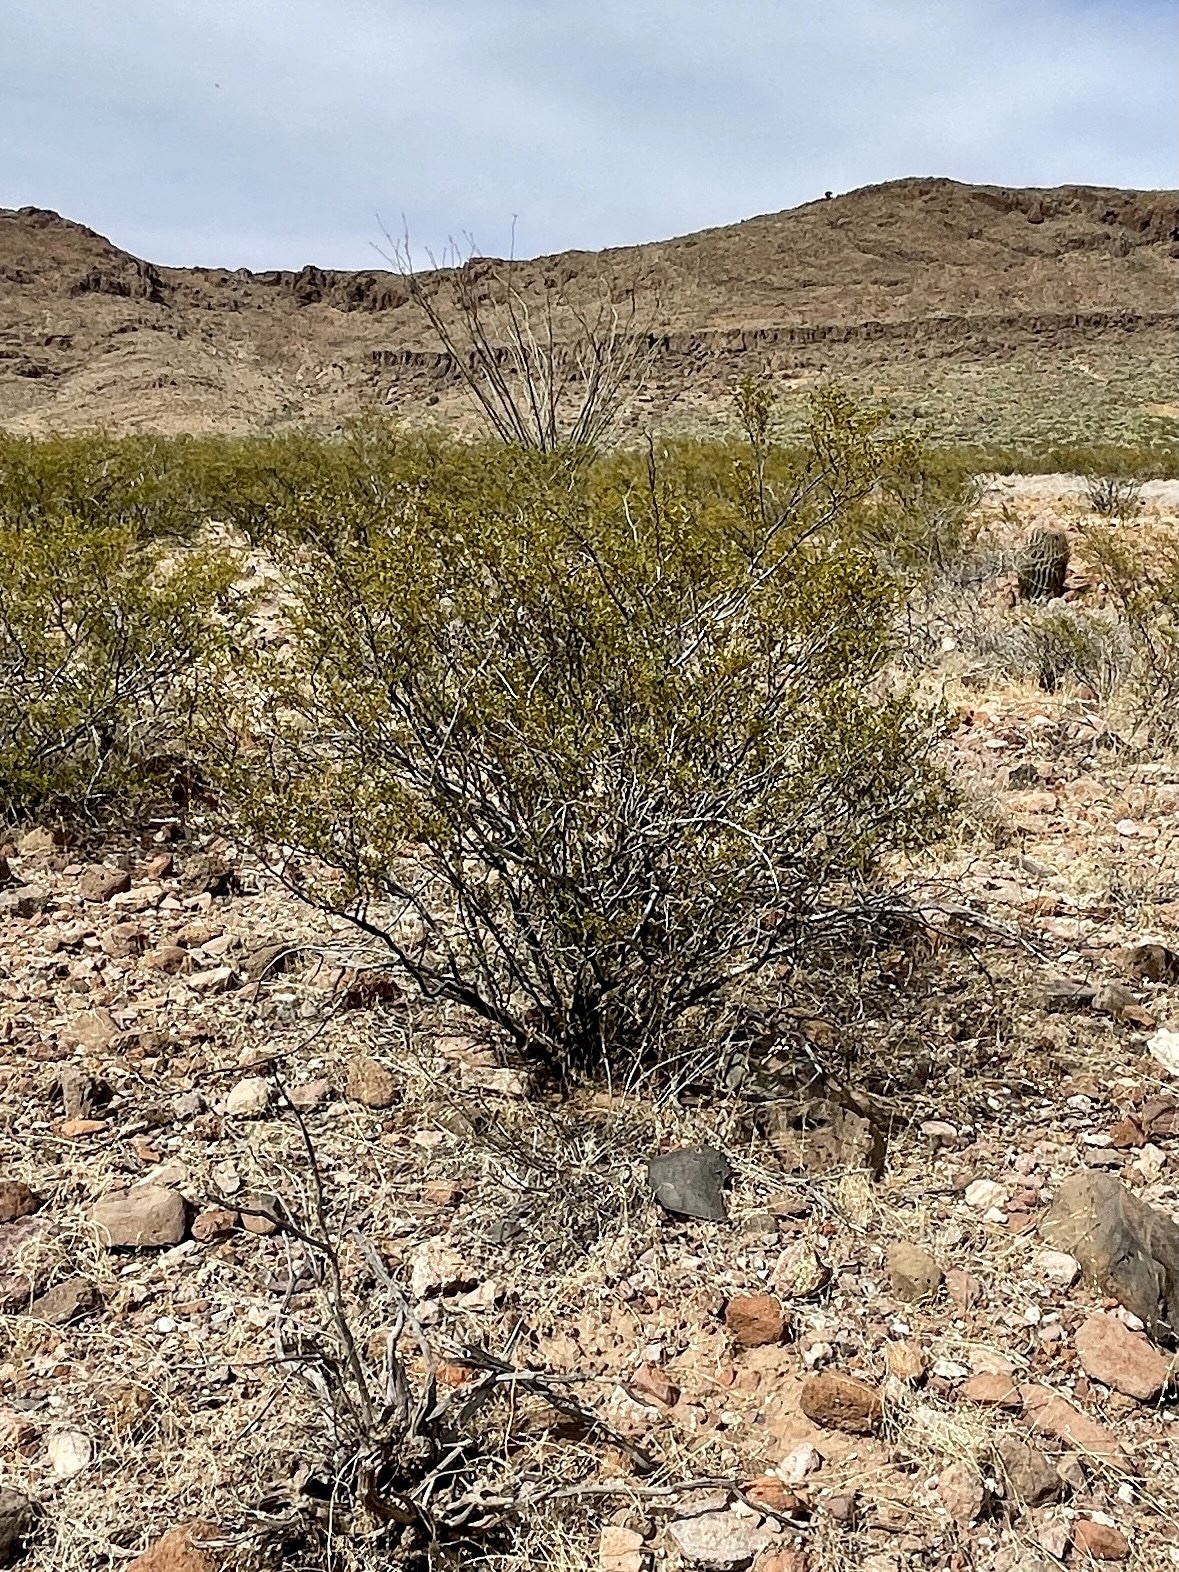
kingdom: Plantae
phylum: Tracheophyta
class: Magnoliopsida
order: Zygophyllales
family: Zygophyllaceae
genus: Larrea
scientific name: Larrea tridentata
